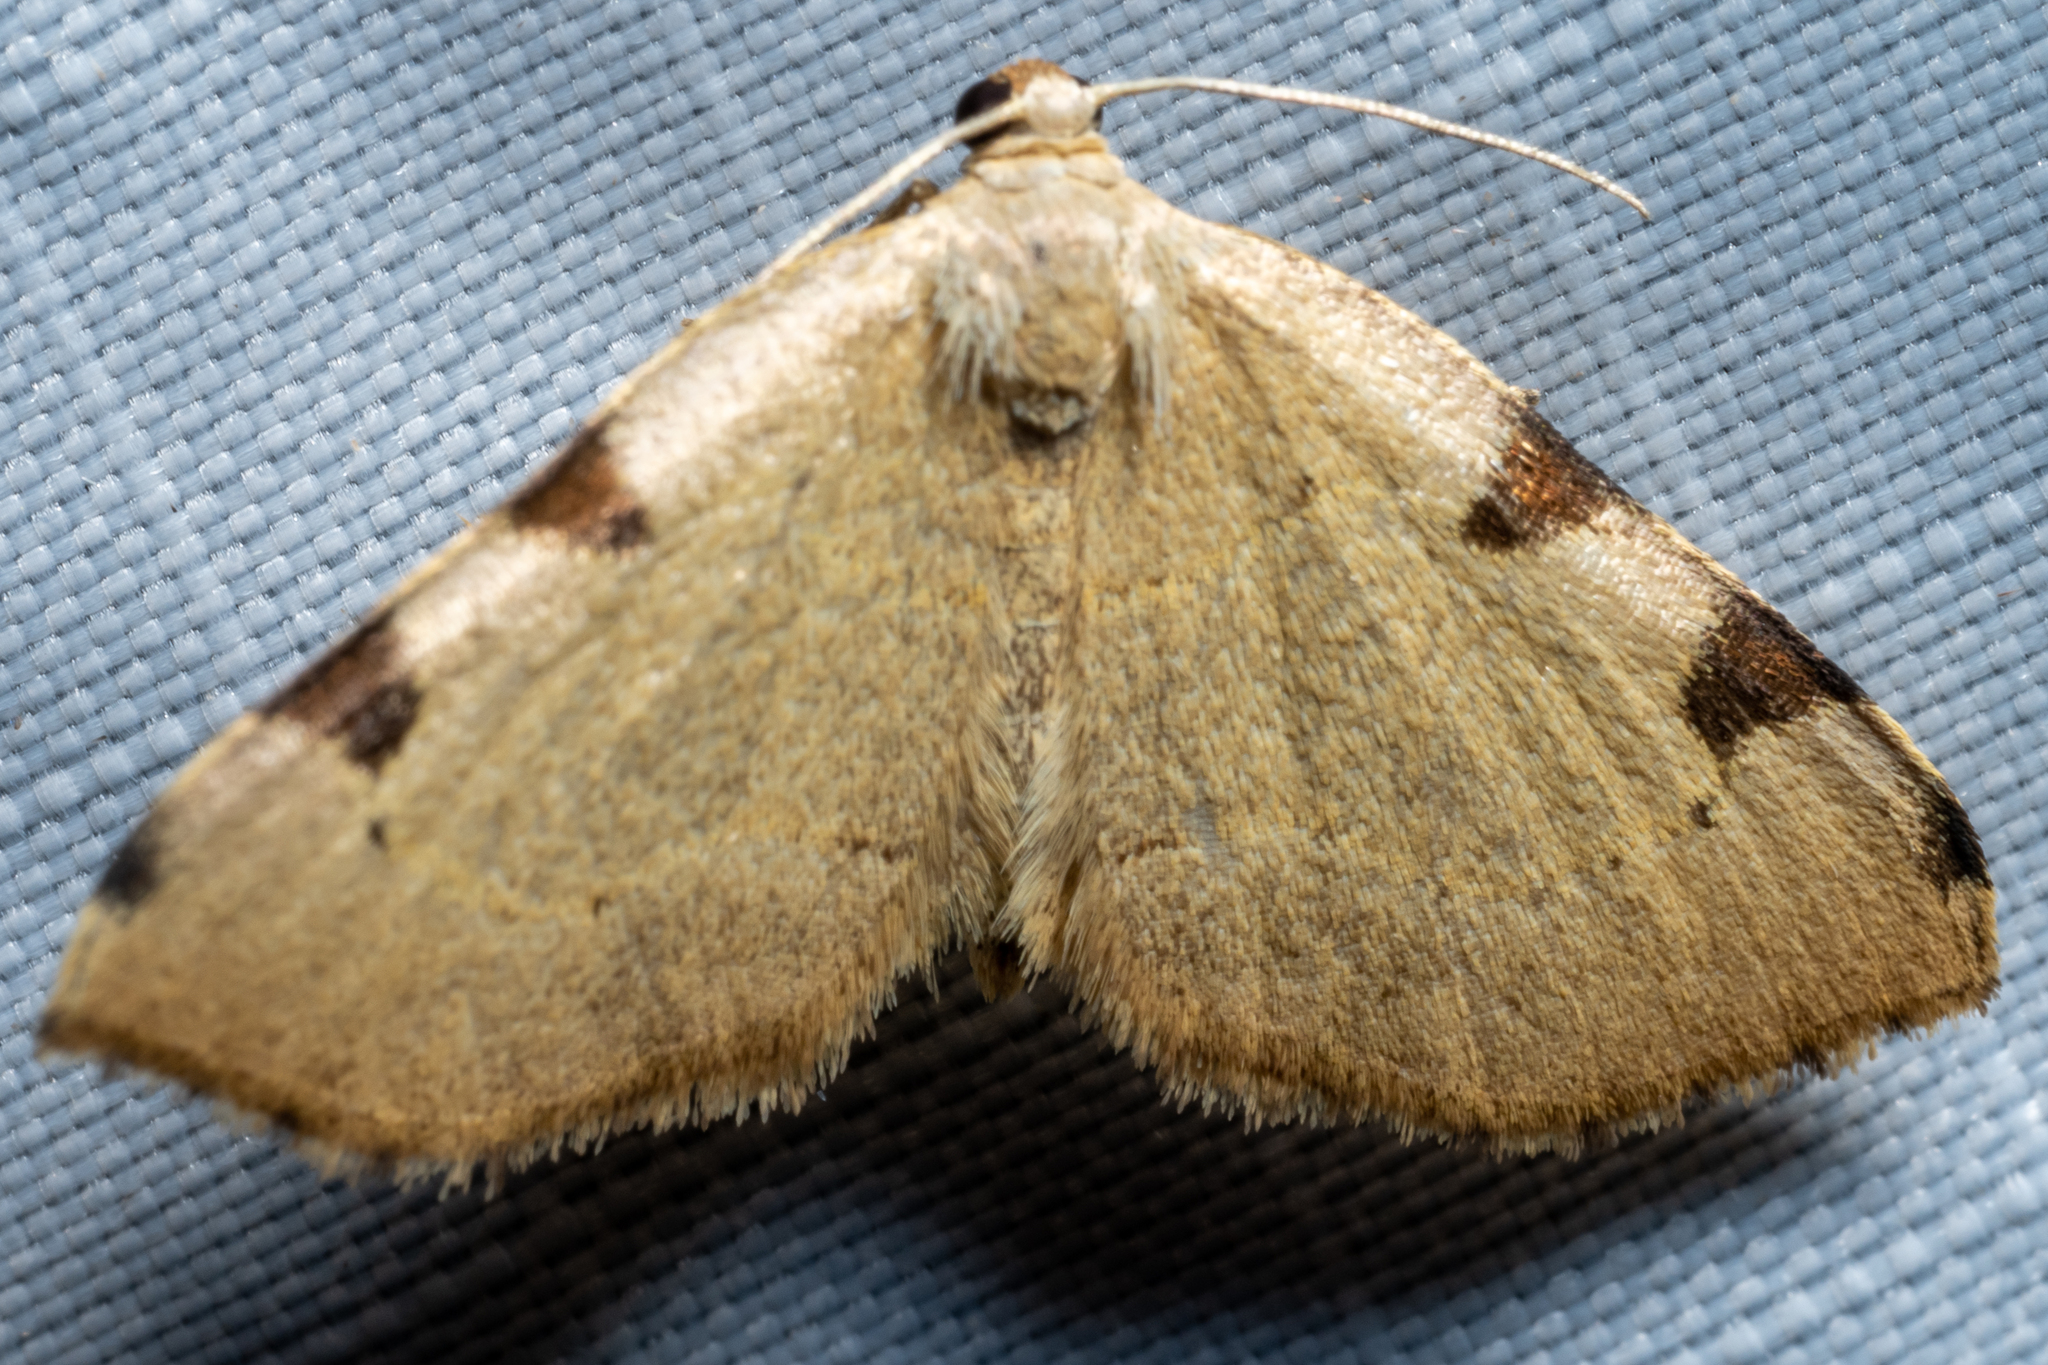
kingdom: Animalia
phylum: Arthropoda
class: Insecta
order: Lepidoptera
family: Geometridae
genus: Heterophleps
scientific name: Heterophleps refusaria
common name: Three-patched bigwing
